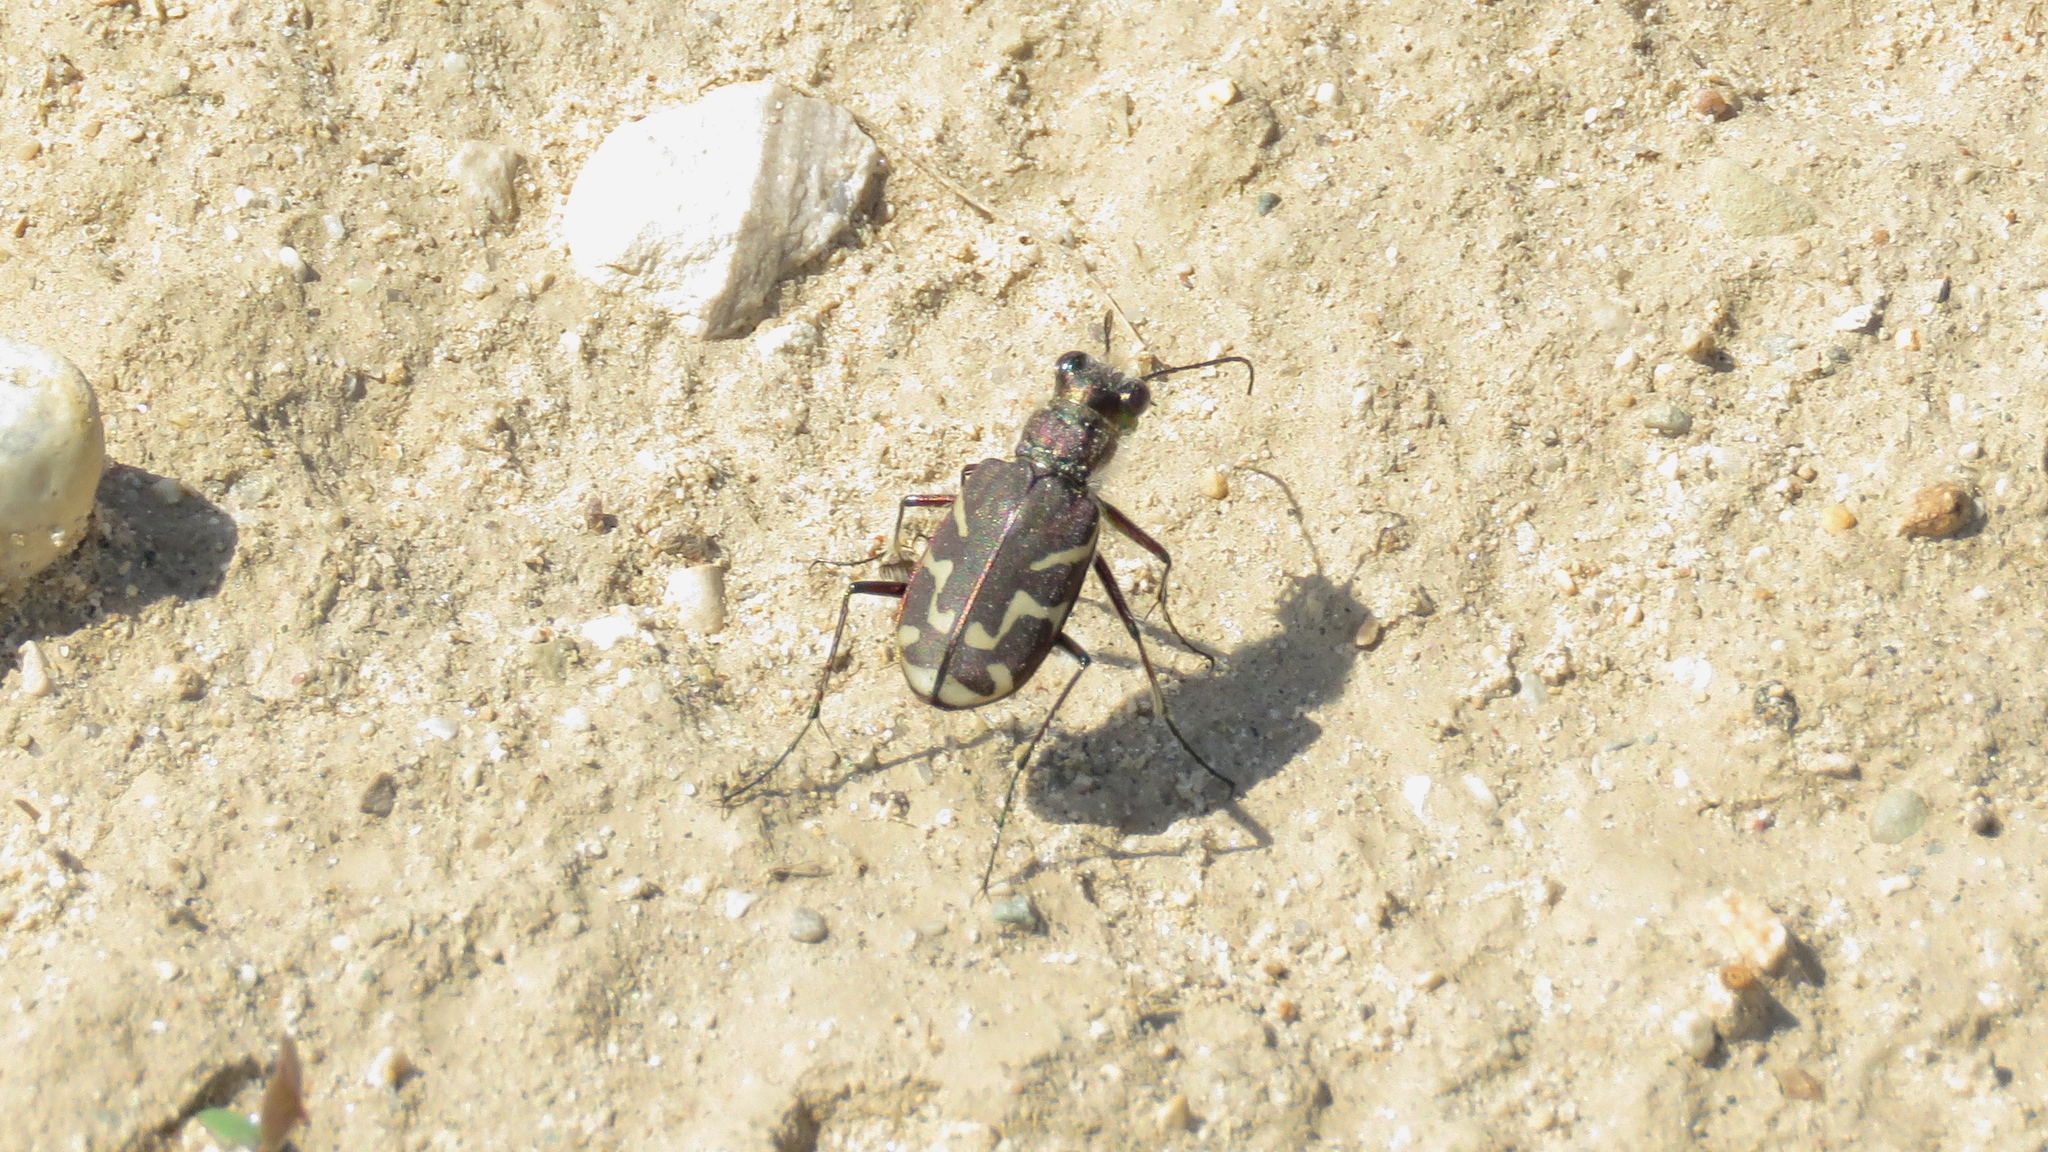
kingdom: Animalia
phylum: Arthropoda
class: Insecta
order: Coleoptera
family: Carabidae
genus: Cicindela
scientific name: Cicindela tranquebarica
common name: Oblique-lined tiger beetle
